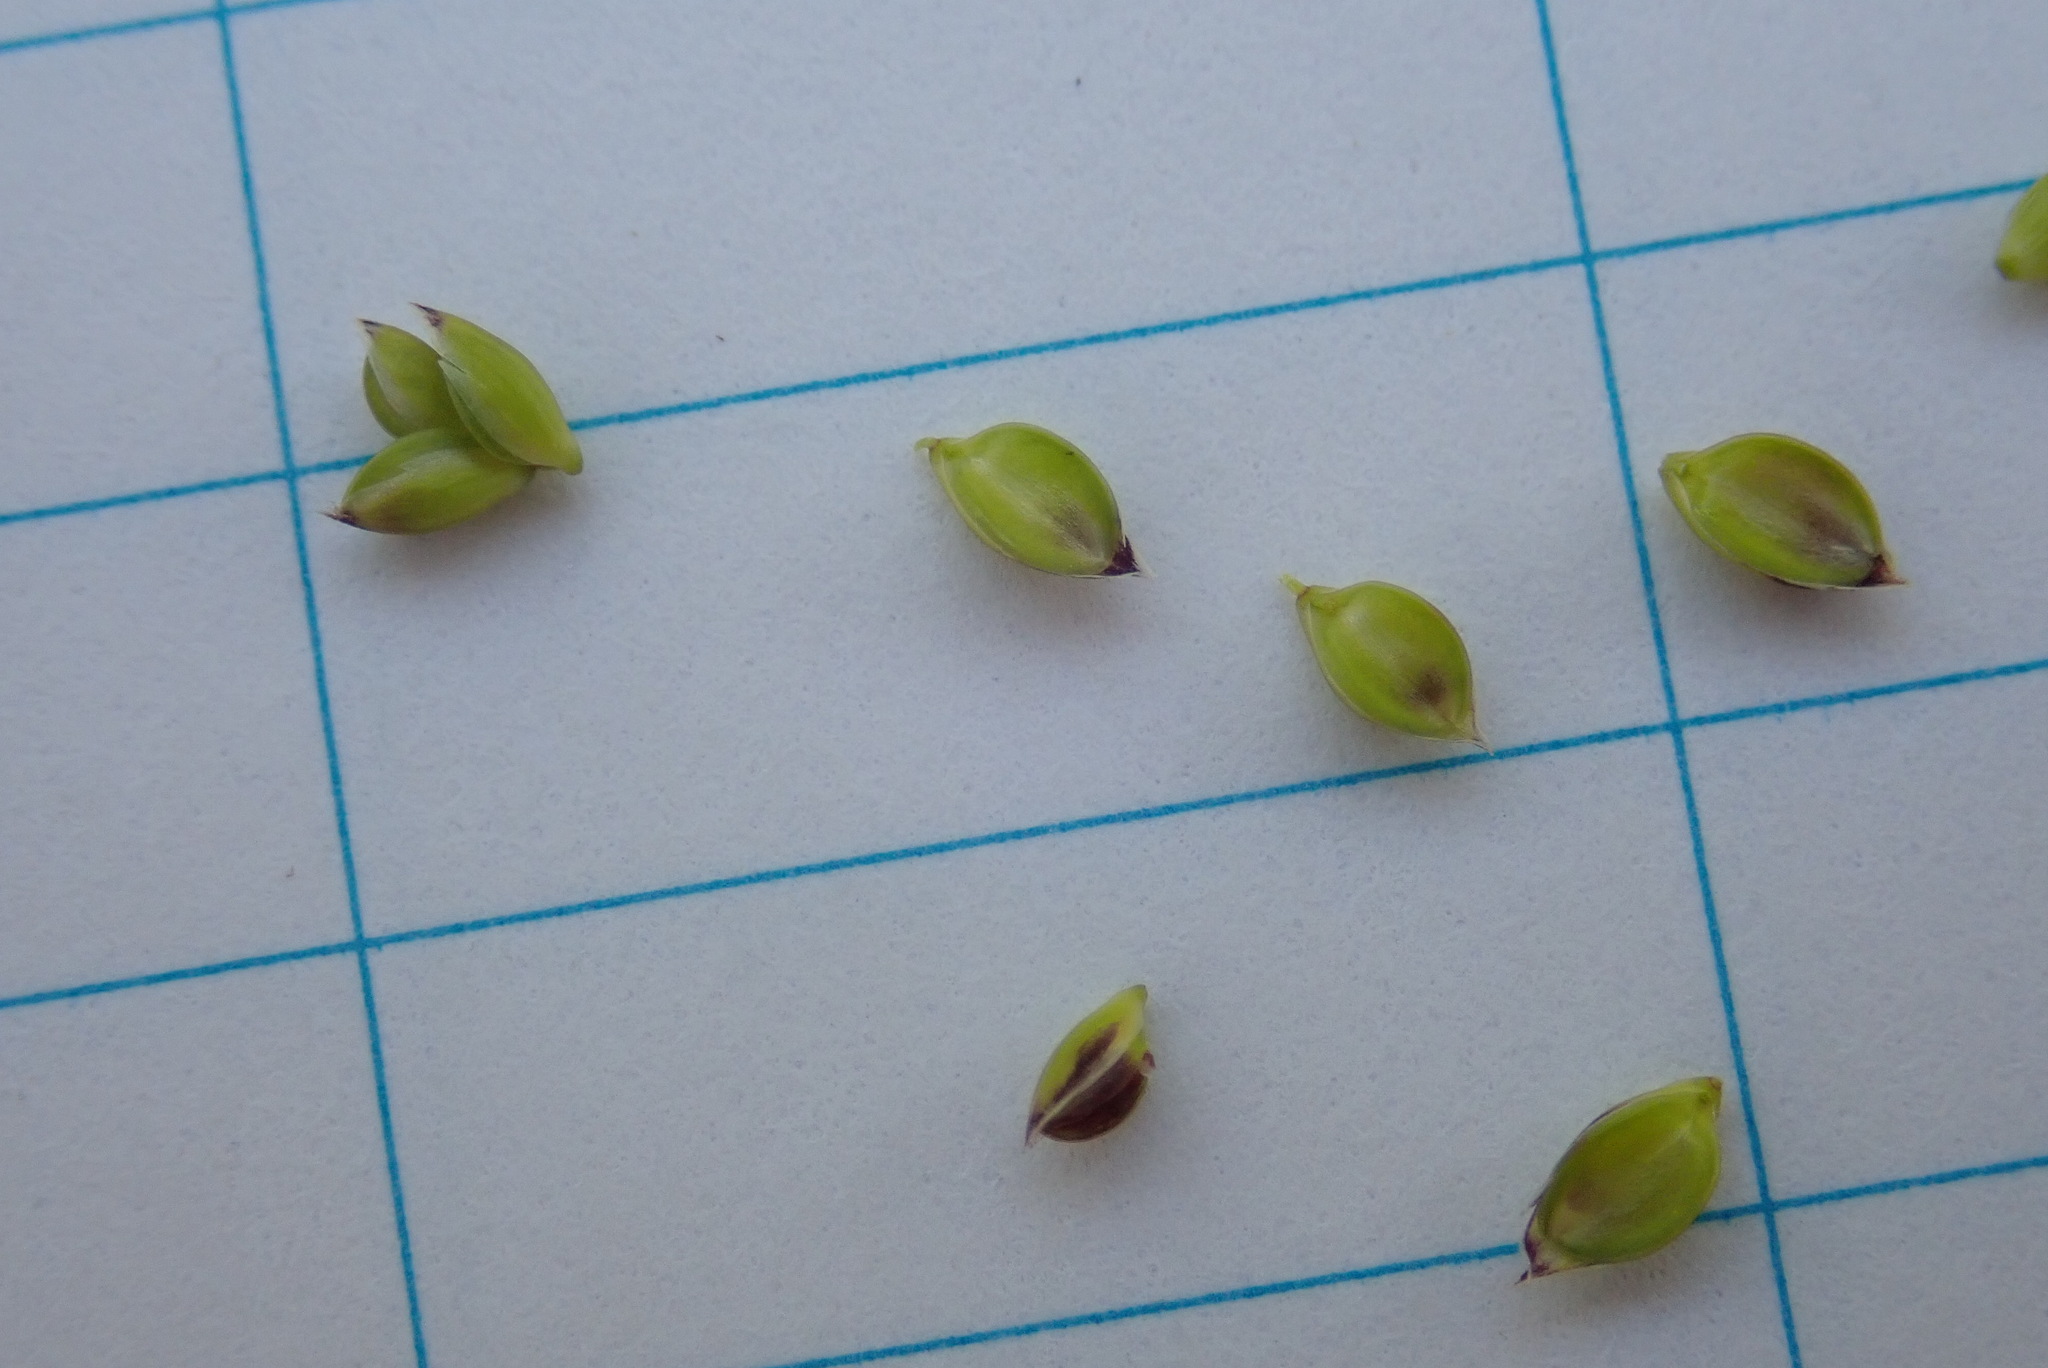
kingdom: Plantae
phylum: Tracheophyta
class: Liliopsida
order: Poales
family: Poaceae
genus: Glyceria
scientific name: Glyceria canadensis
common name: Canada mannagrass
